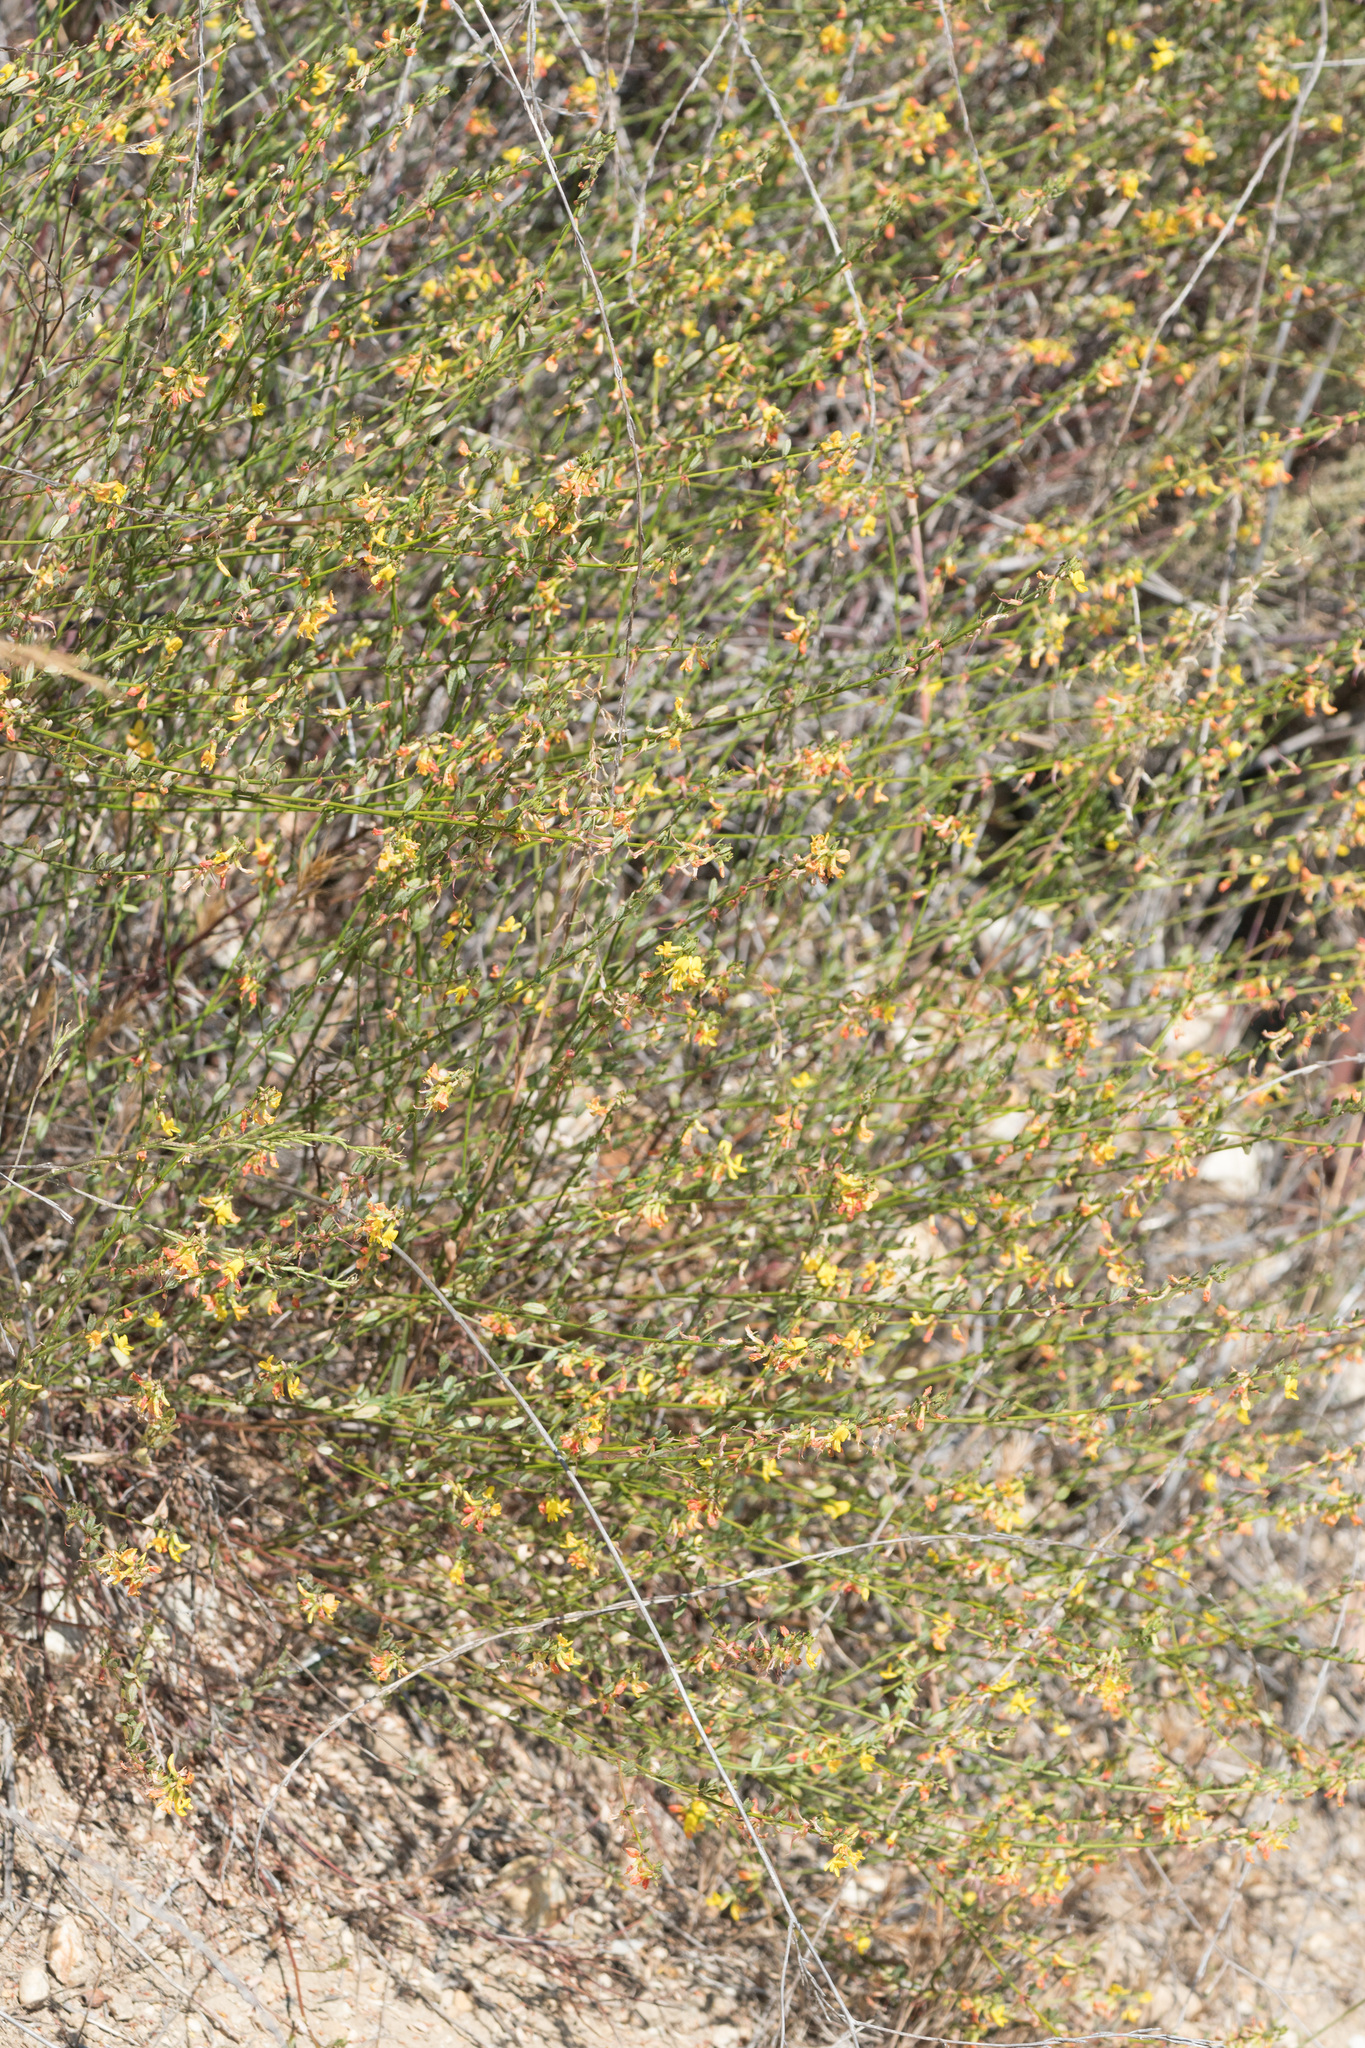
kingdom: Plantae
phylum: Tracheophyta
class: Magnoliopsida
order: Fabales
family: Fabaceae
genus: Acmispon
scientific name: Acmispon glaber
